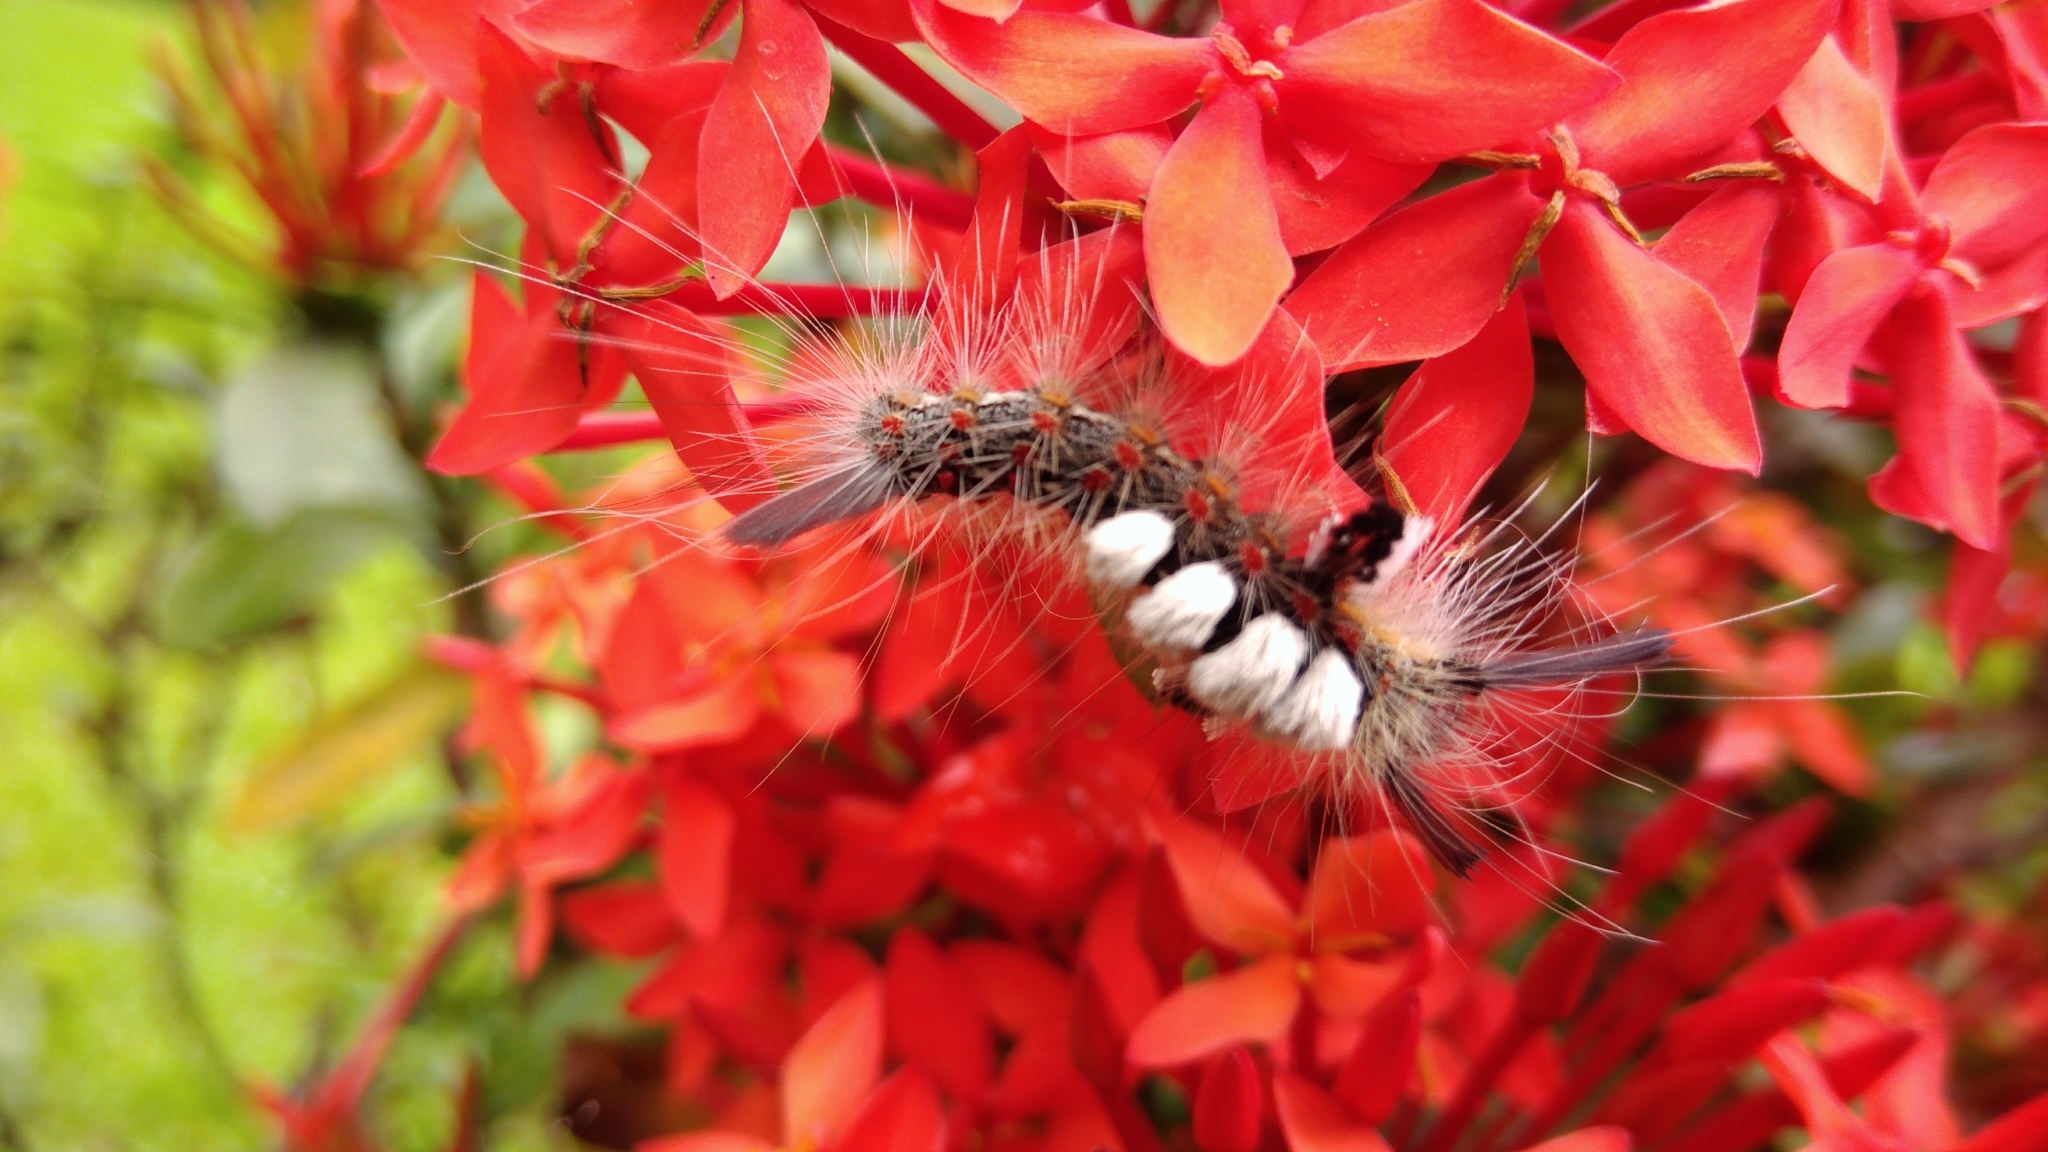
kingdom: Animalia
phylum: Arthropoda
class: Insecta
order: Lepidoptera
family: Erebidae
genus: Olene
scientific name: Olene mendosa
